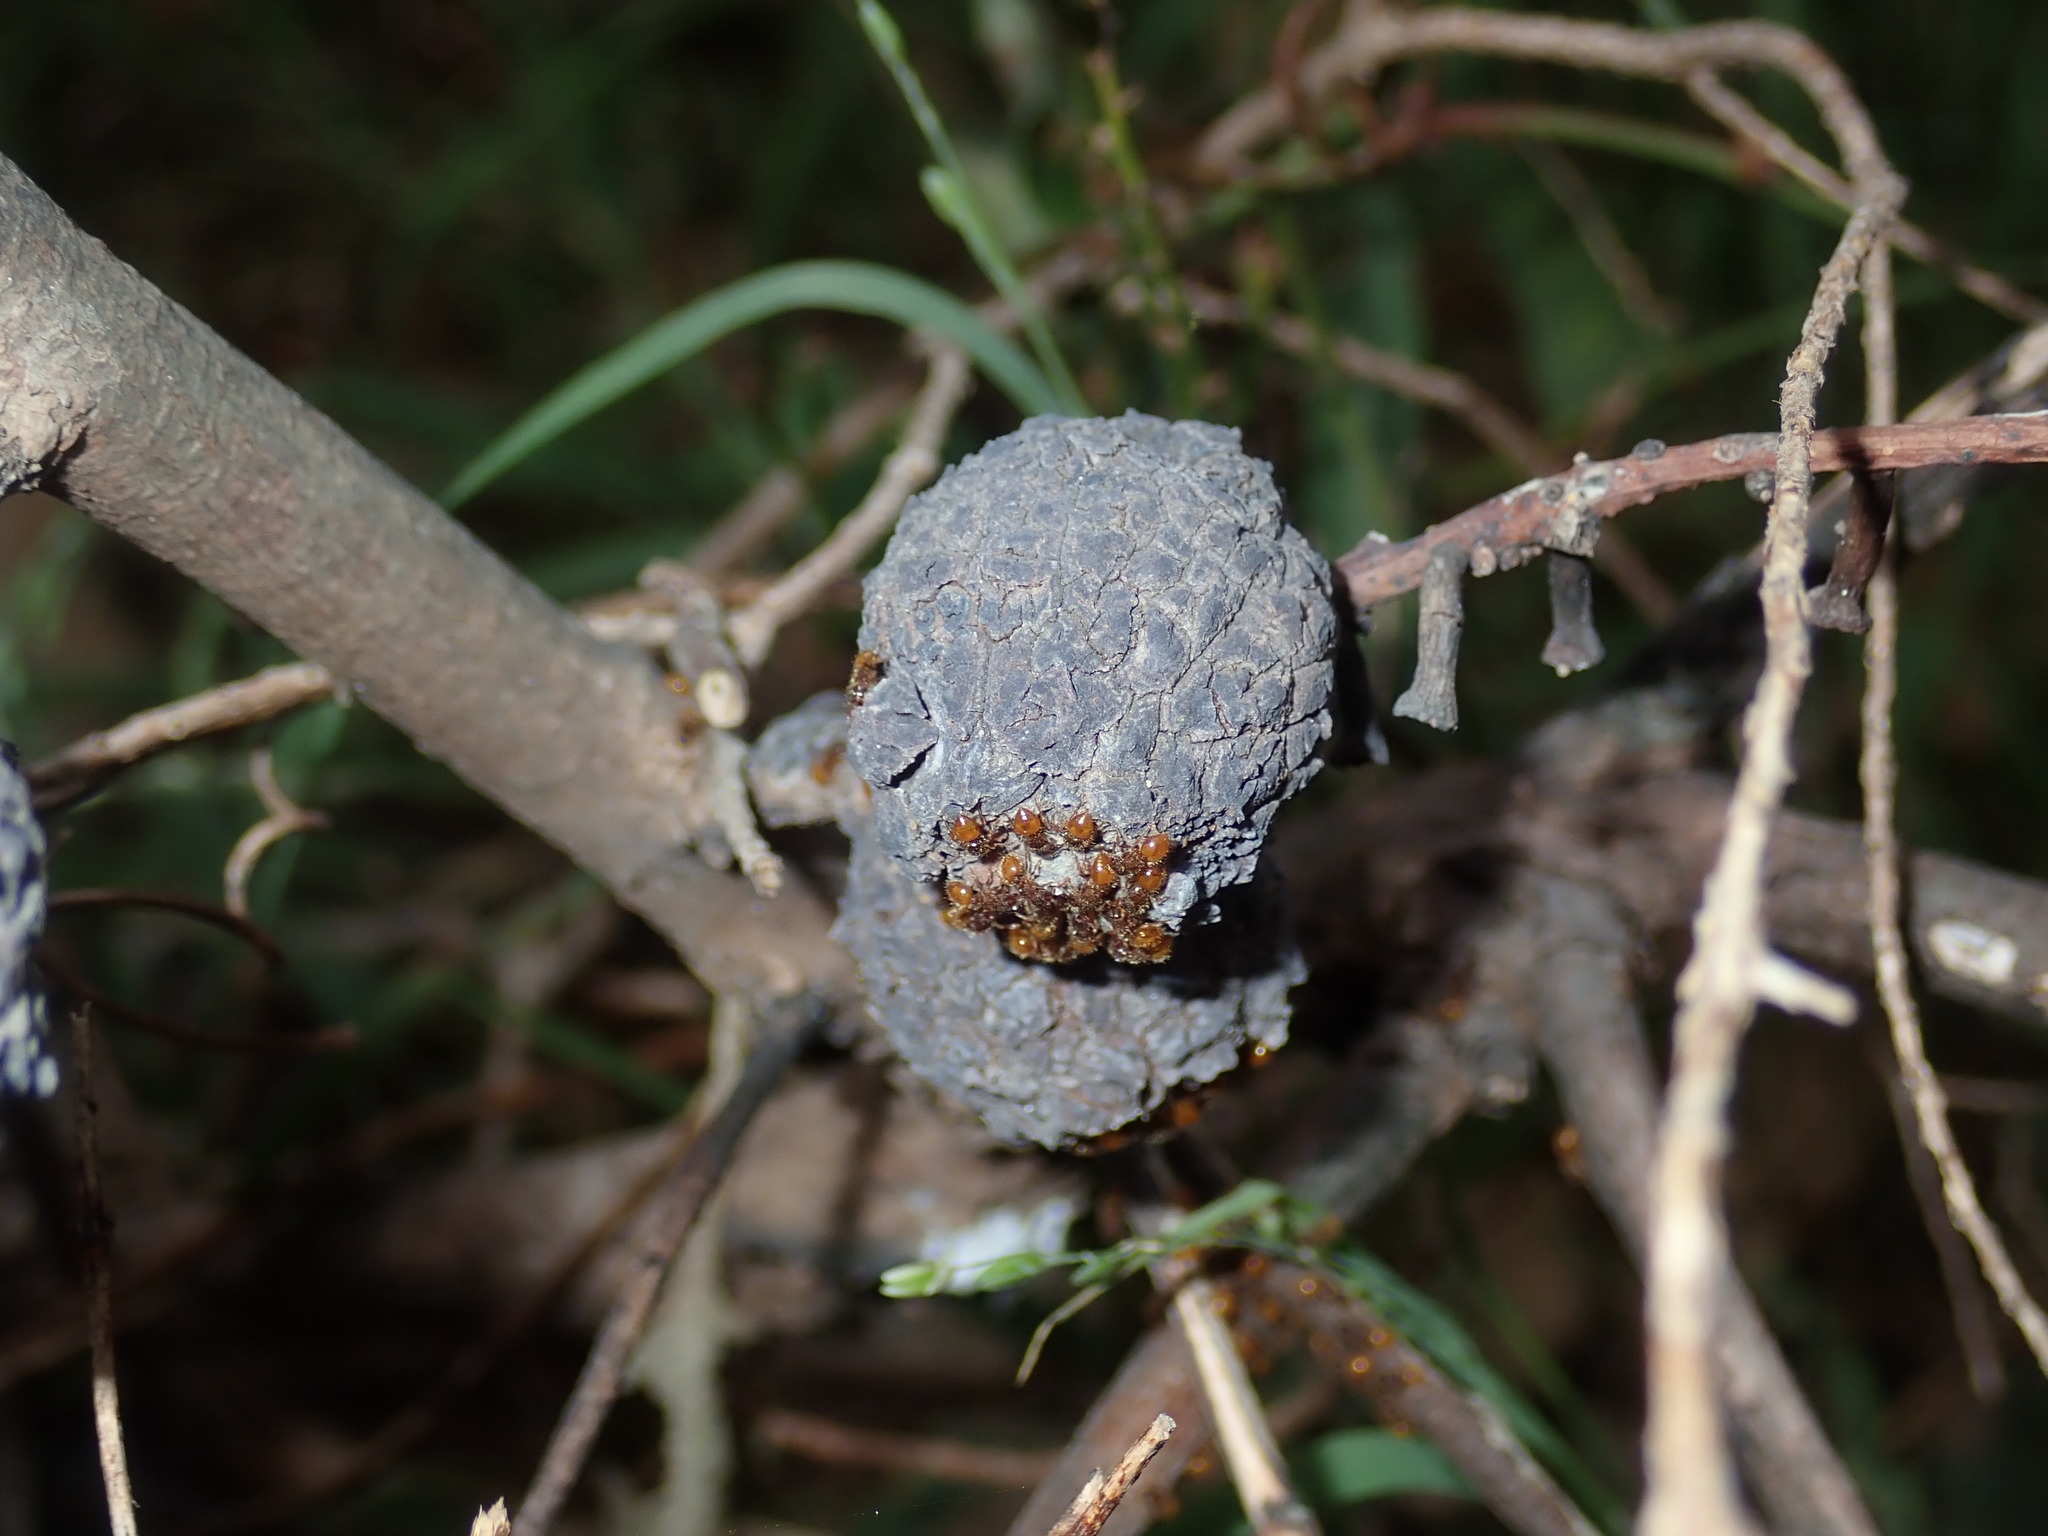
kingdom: Animalia
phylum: Arthropoda
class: Insecta
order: Hemiptera
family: Eriococcidae
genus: Apiomorpha
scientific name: Apiomorpha strombylosa
